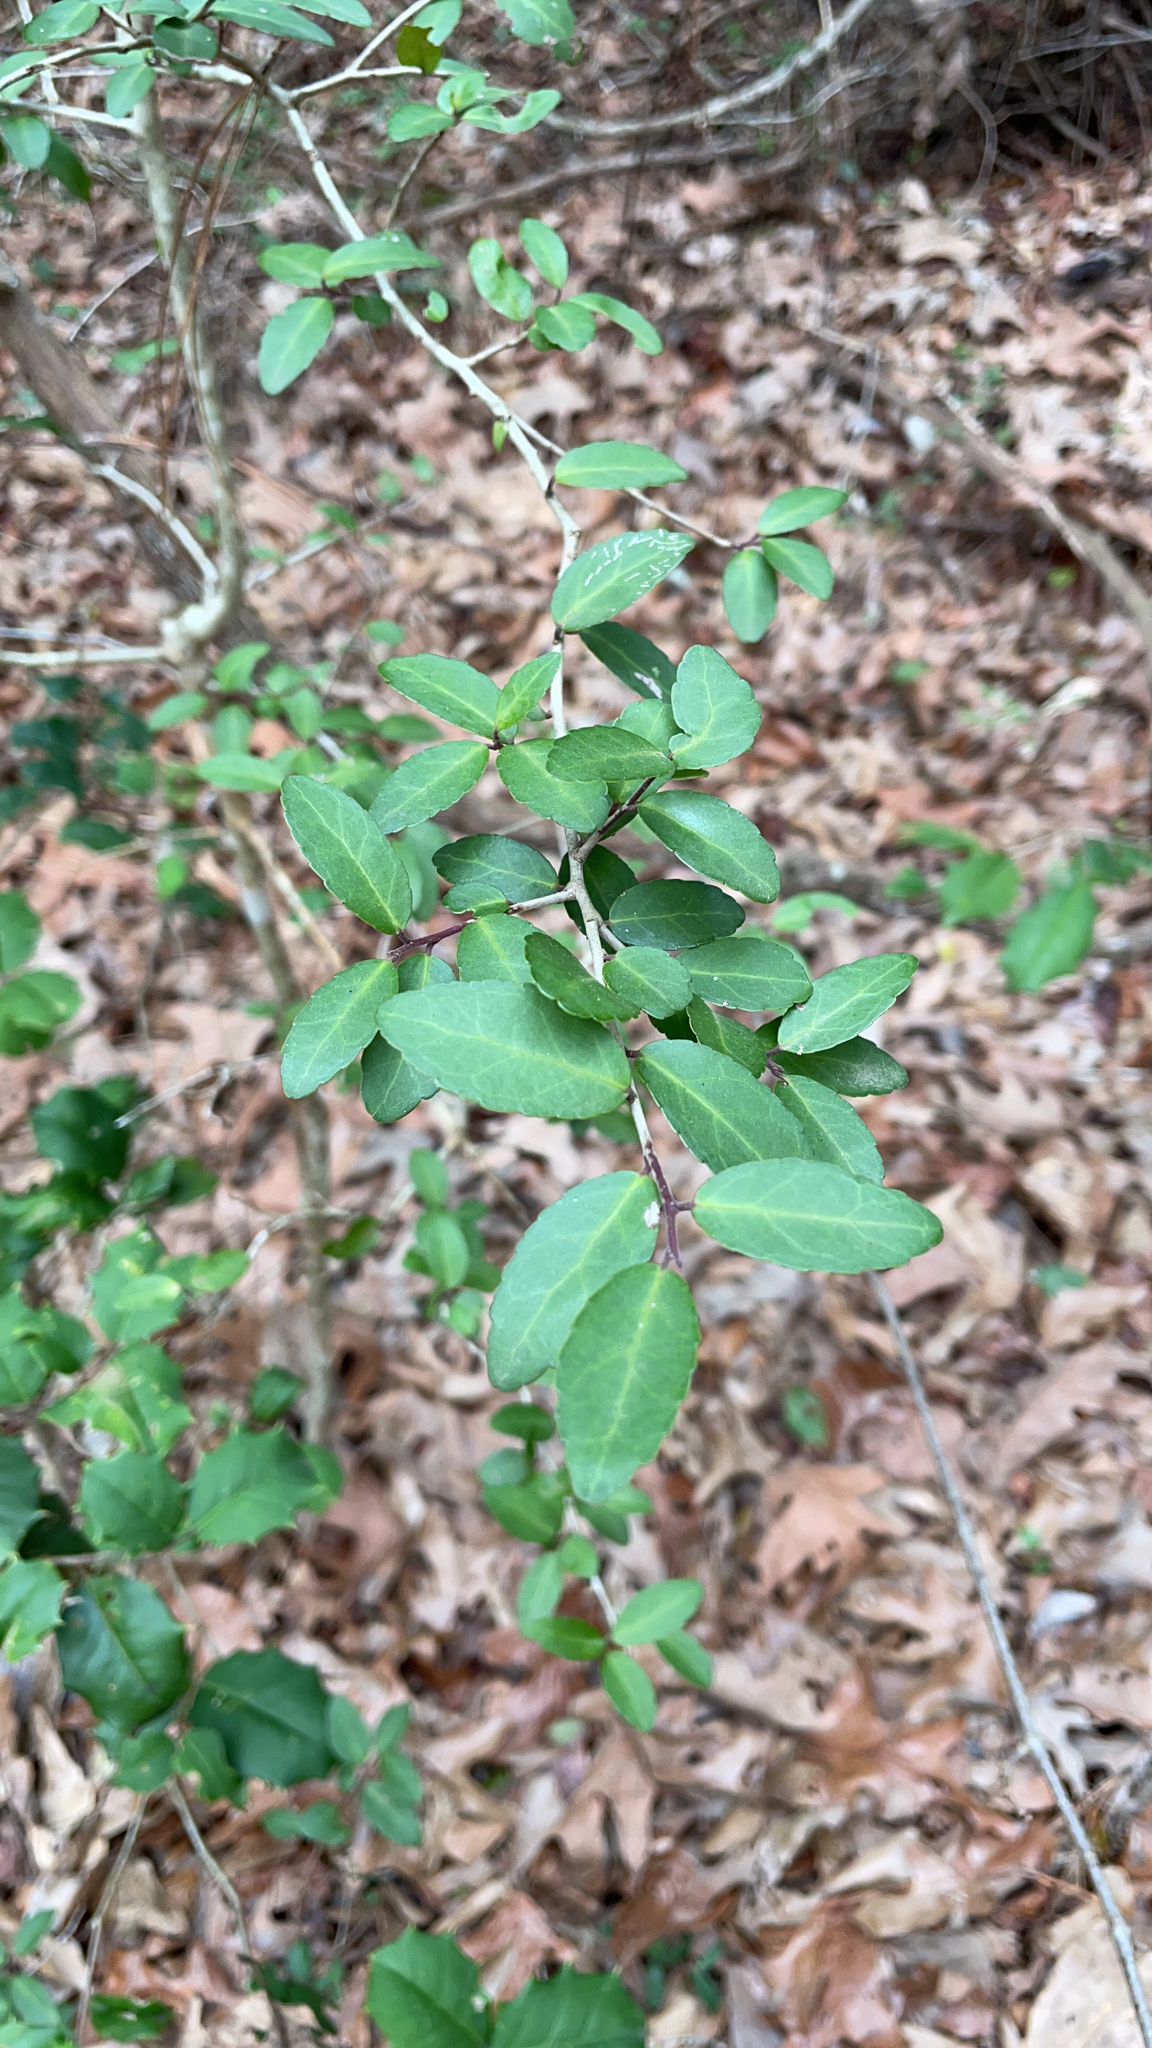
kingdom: Plantae
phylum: Tracheophyta
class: Magnoliopsida
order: Aquifoliales
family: Aquifoliaceae
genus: Ilex
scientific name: Ilex vomitoria
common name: Yaupon holly
